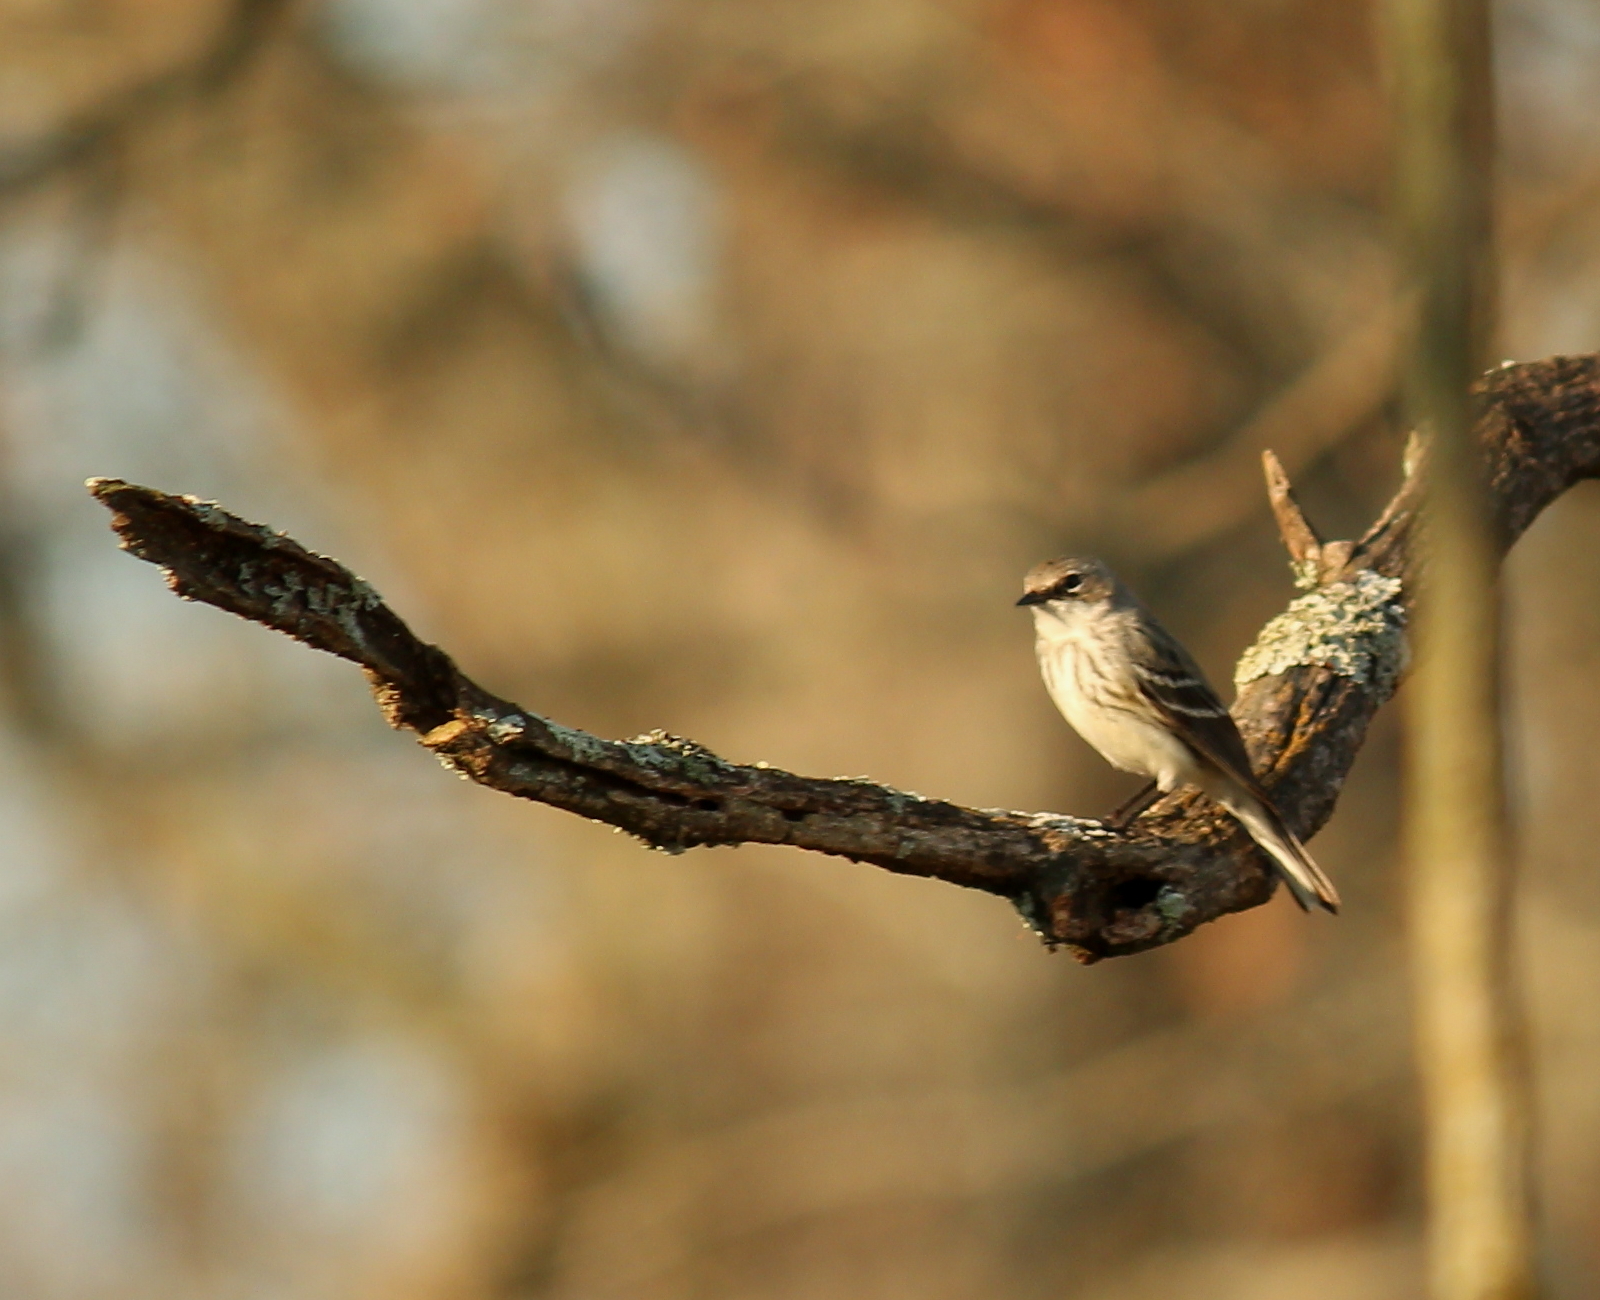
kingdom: Animalia
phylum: Chordata
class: Aves
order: Passeriformes
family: Parulidae
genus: Setophaga
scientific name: Setophaga coronata
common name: Myrtle warbler
